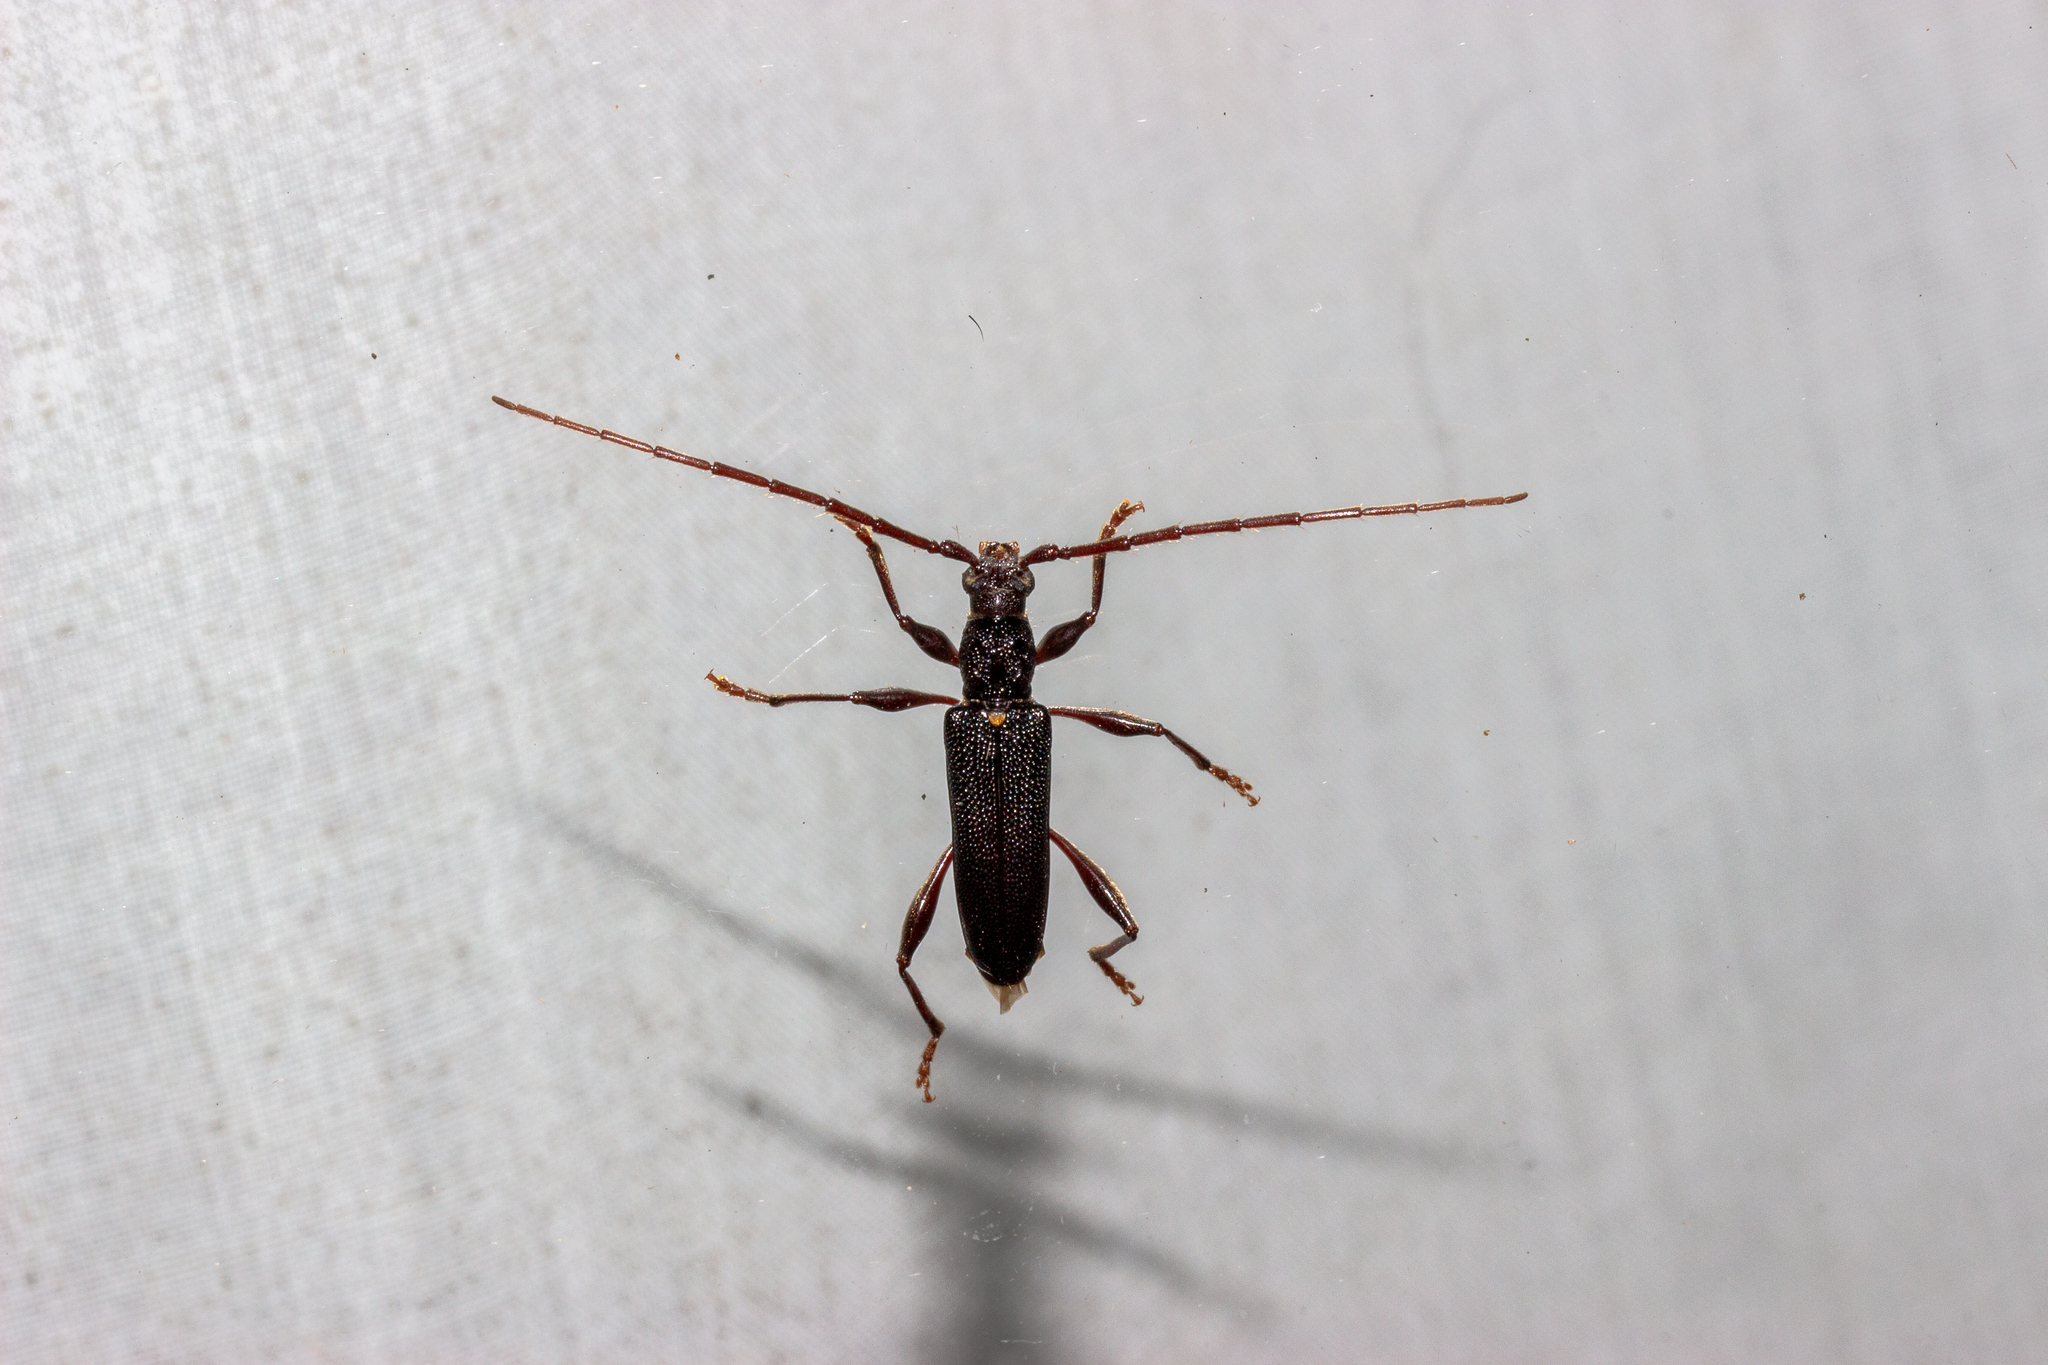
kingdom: Animalia
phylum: Arthropoda
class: Insecta
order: Coleoptera
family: Cerambycidae
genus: Callidiopis
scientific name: Callidiopis scutellaris
